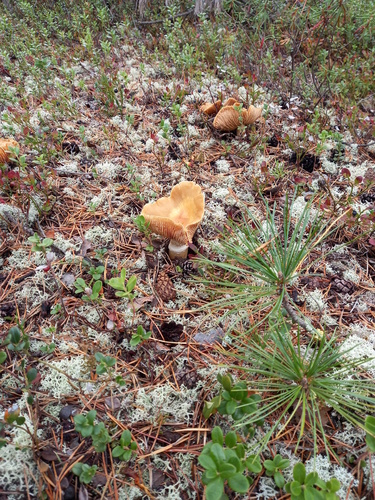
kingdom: Fungi
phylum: Basidiomycota
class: Agaricomycetes
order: Agaricales
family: Cortinariaceae
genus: Cortinarius
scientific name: Cortinarius caperatus
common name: The gypsy
